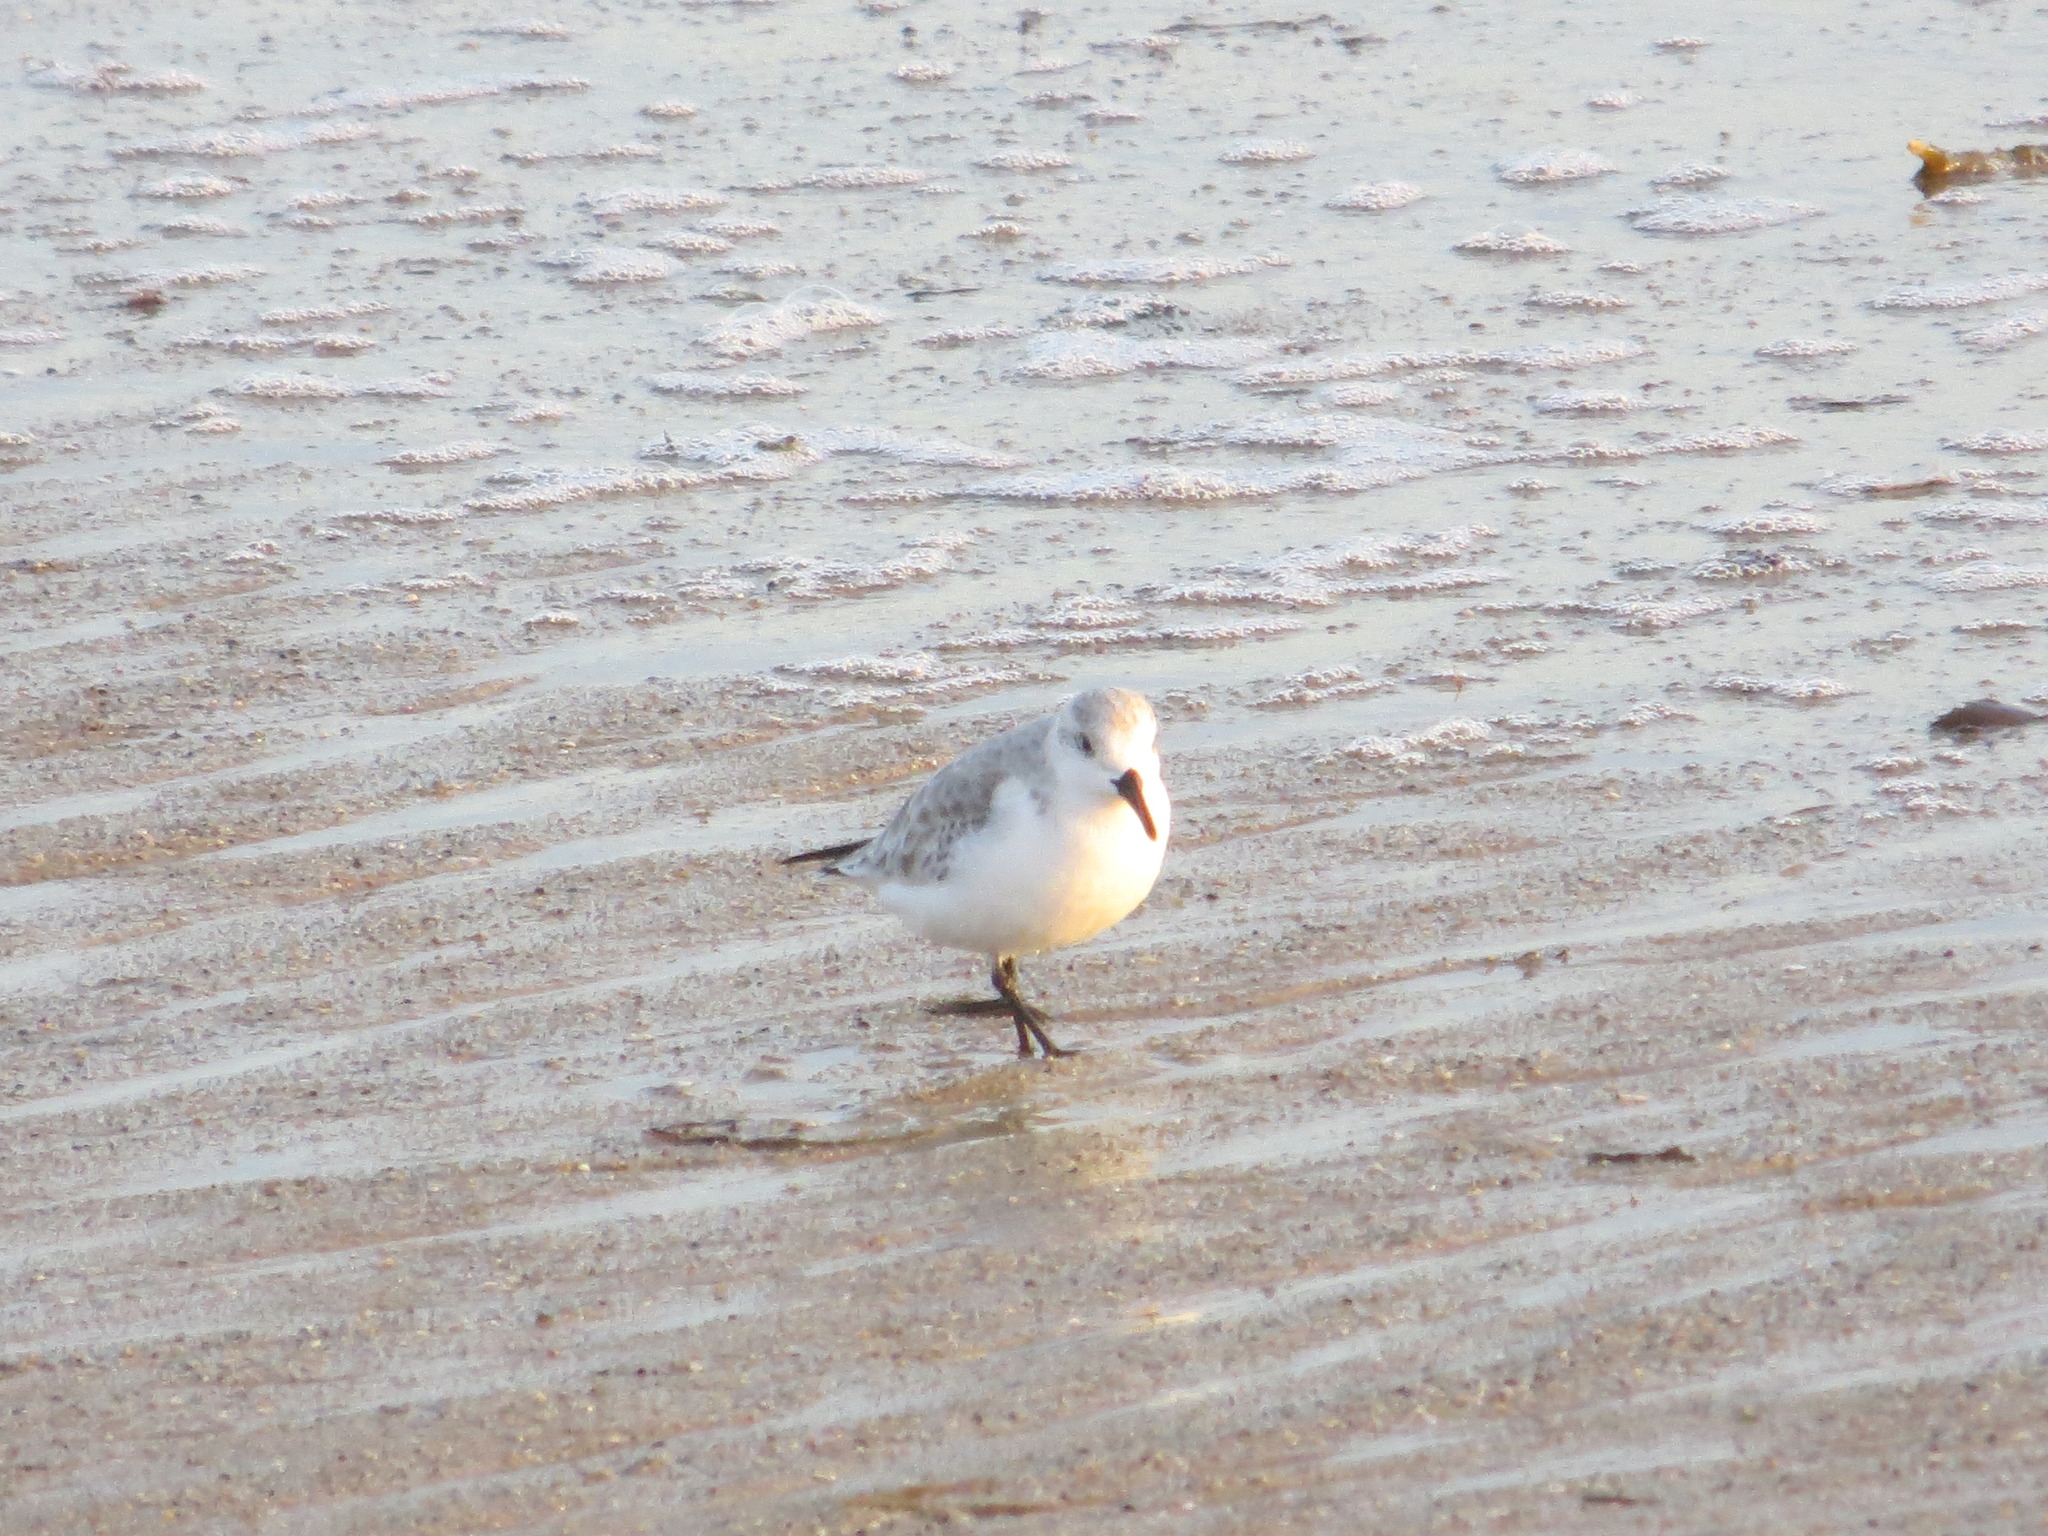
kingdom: Animalia
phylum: Chordata
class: Aves
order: Charadriiformes
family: Scolopacidae
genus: Calidris
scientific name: Calidris alba
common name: Sanderling
